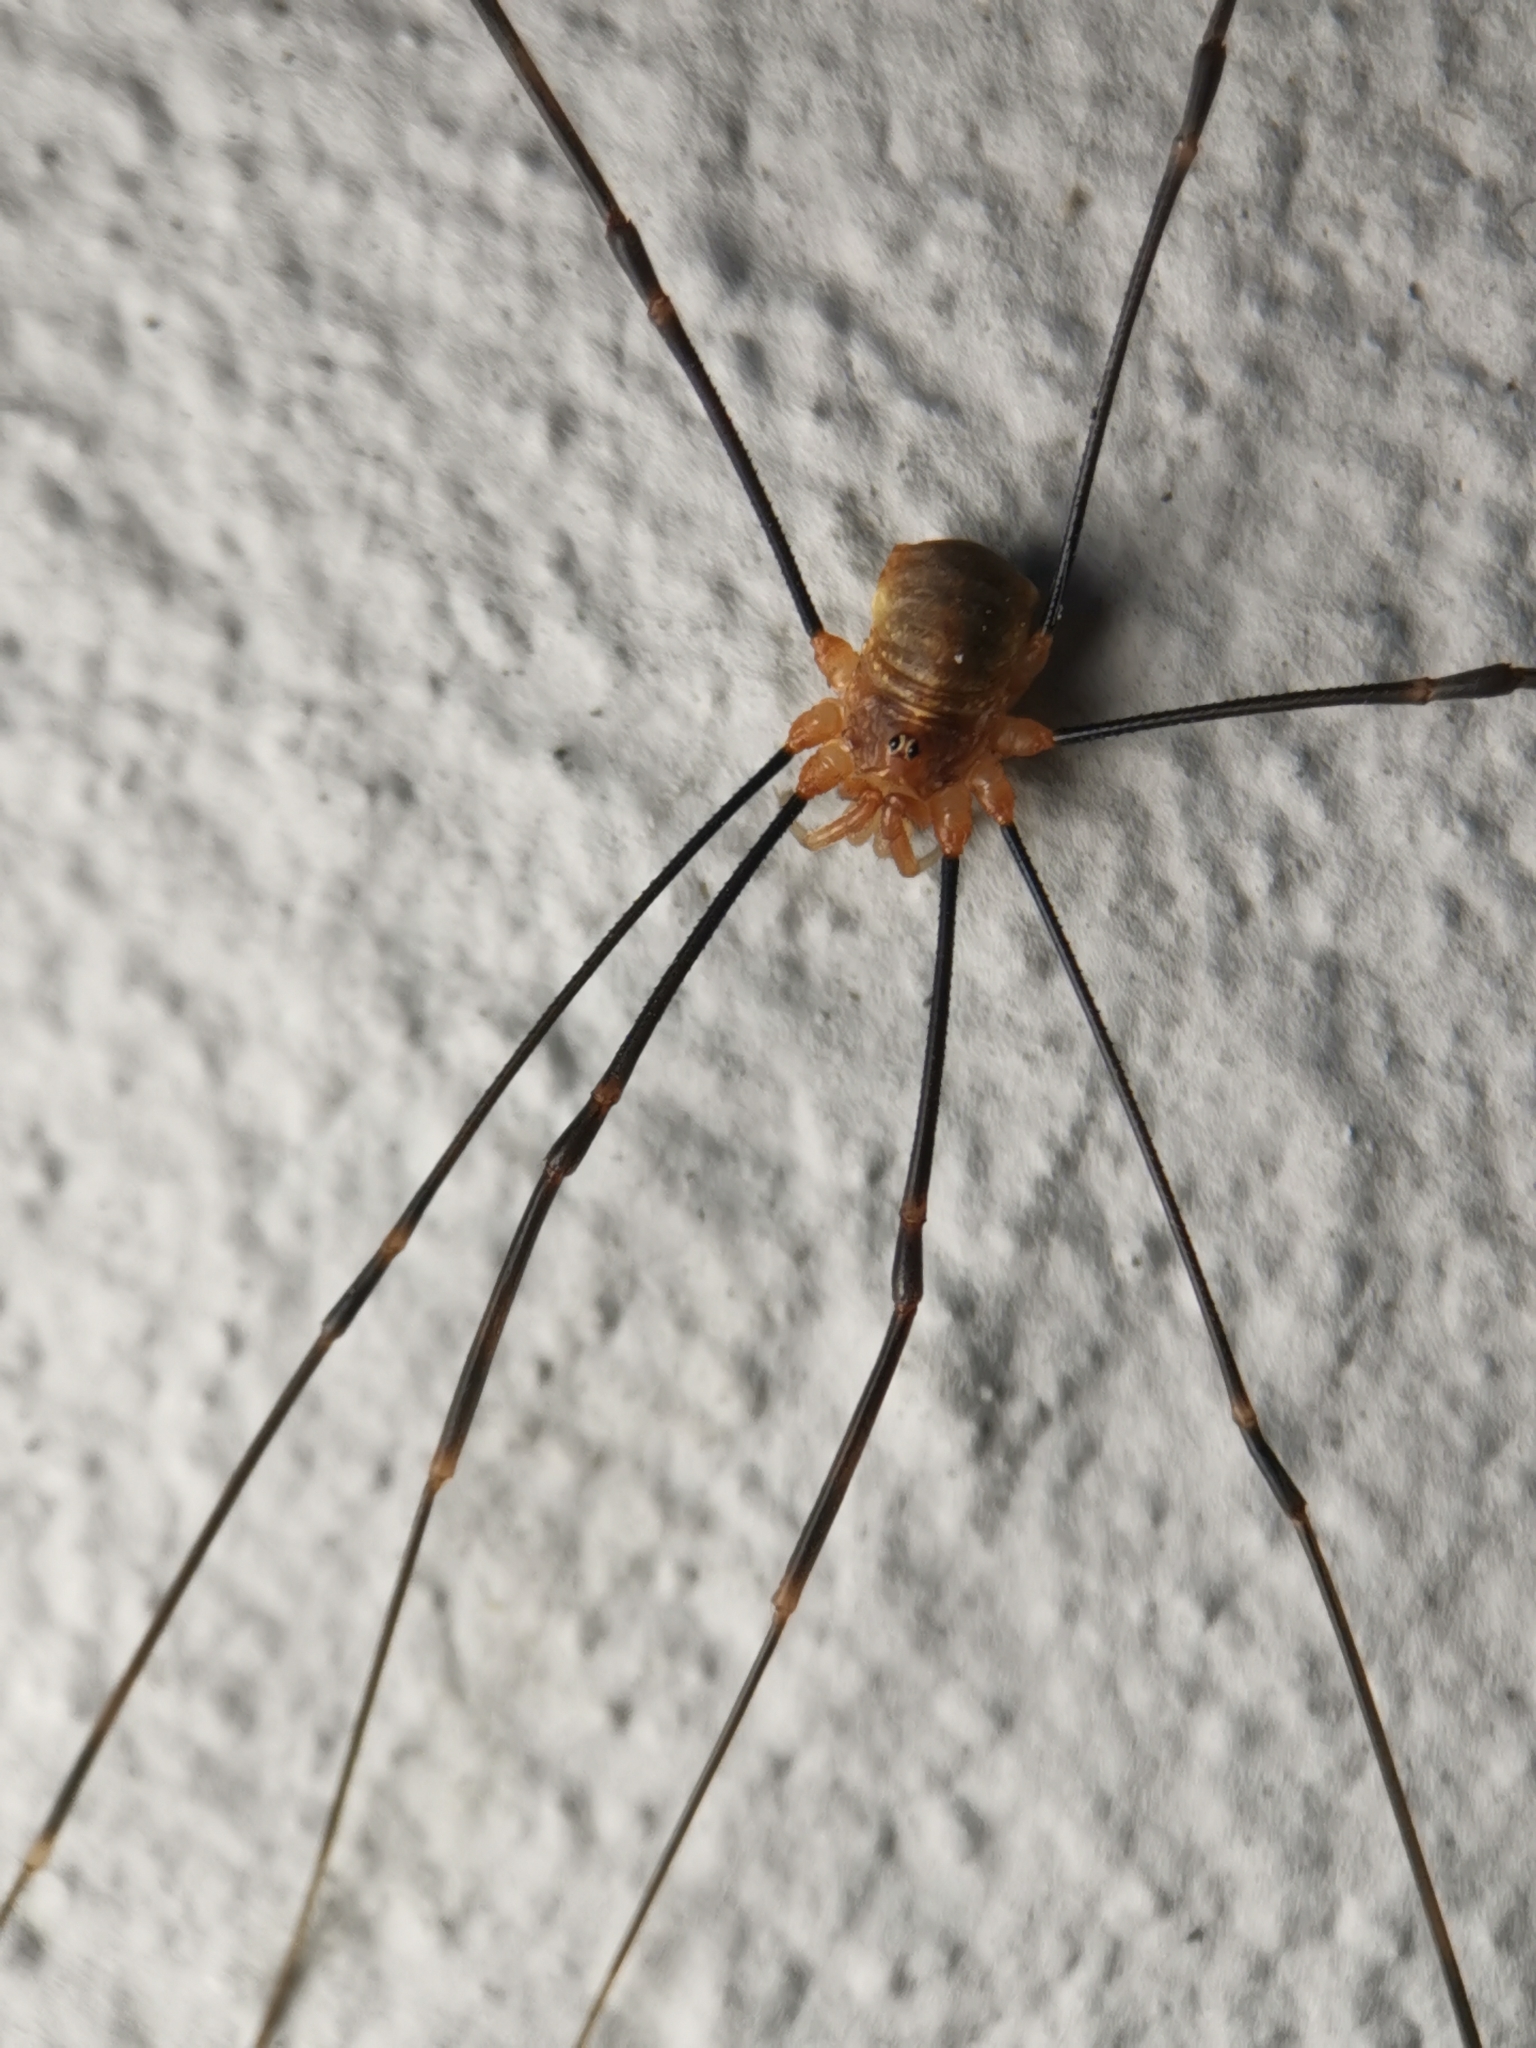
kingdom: Animalia
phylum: Arthropoda
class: Arachnida
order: Opiliones
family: Phalangiidae
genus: Opilio
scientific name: Opilio canestrinii
